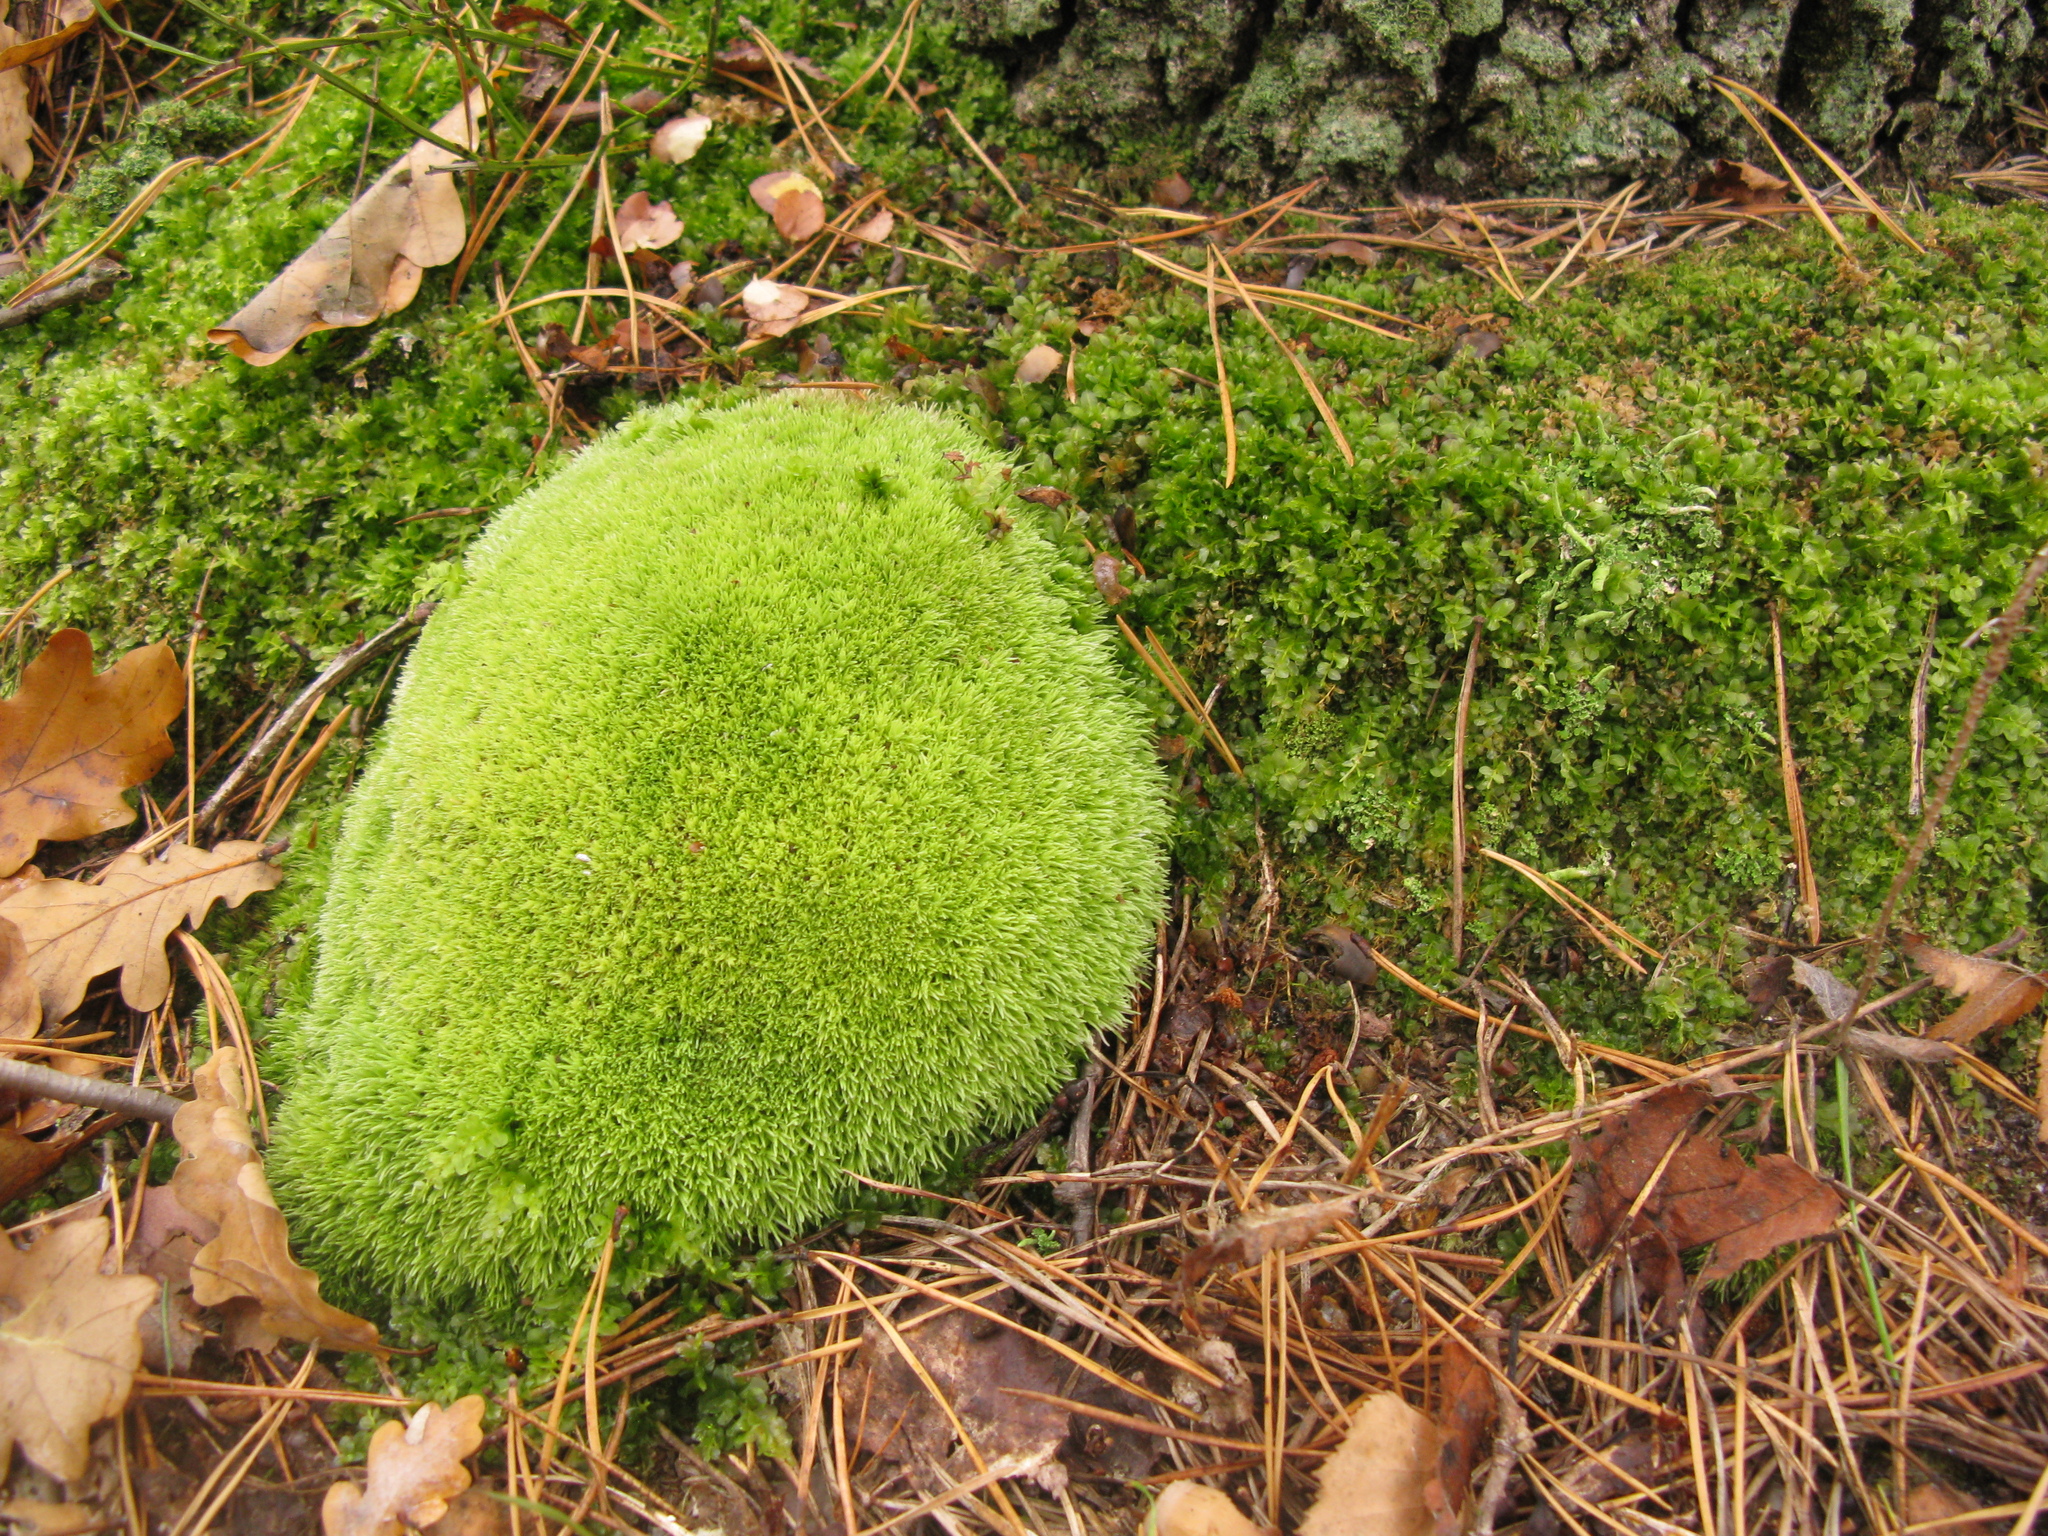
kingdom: Plantae
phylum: Bryophyta
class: Bryopsida
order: Dicranales
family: Leucobryaceae
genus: Leucobryum
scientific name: Leucobryum glaucum
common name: Large white-moss
